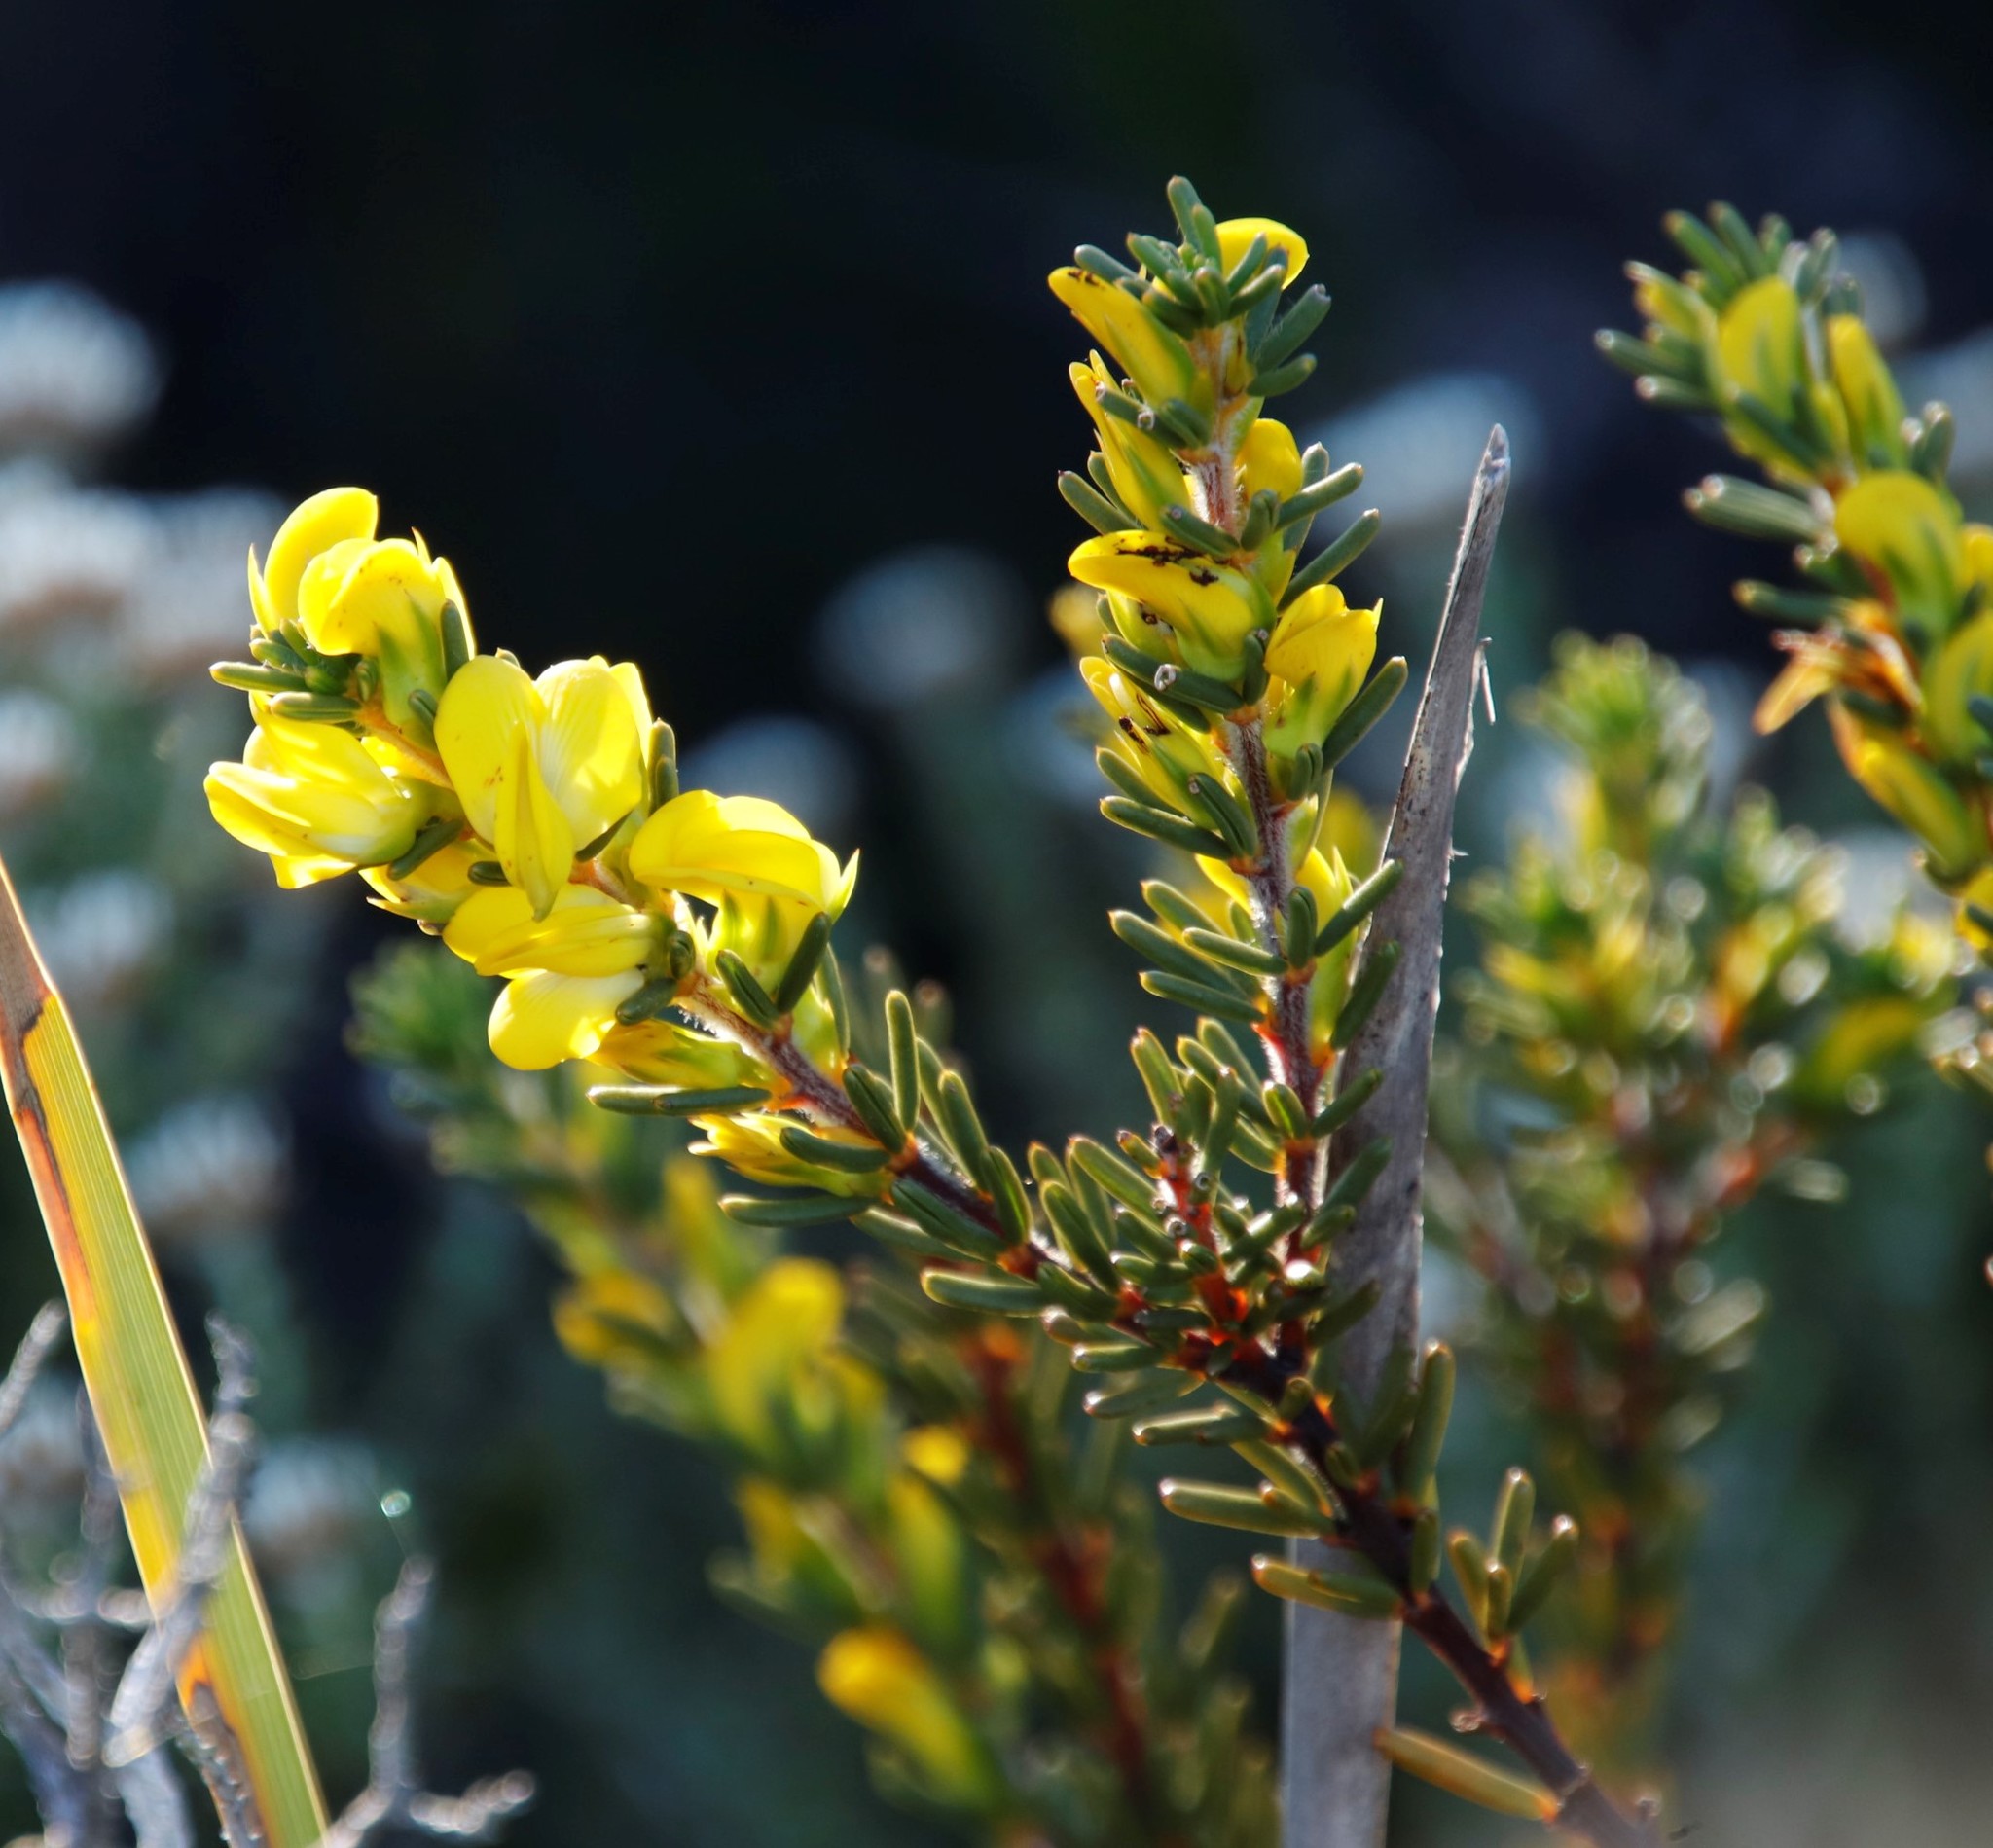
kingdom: Plantae
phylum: Tracheophyta
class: Magnoliopsida
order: Fabales
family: Fabaceae
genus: Cyclopia
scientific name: Cyclopia galioides
